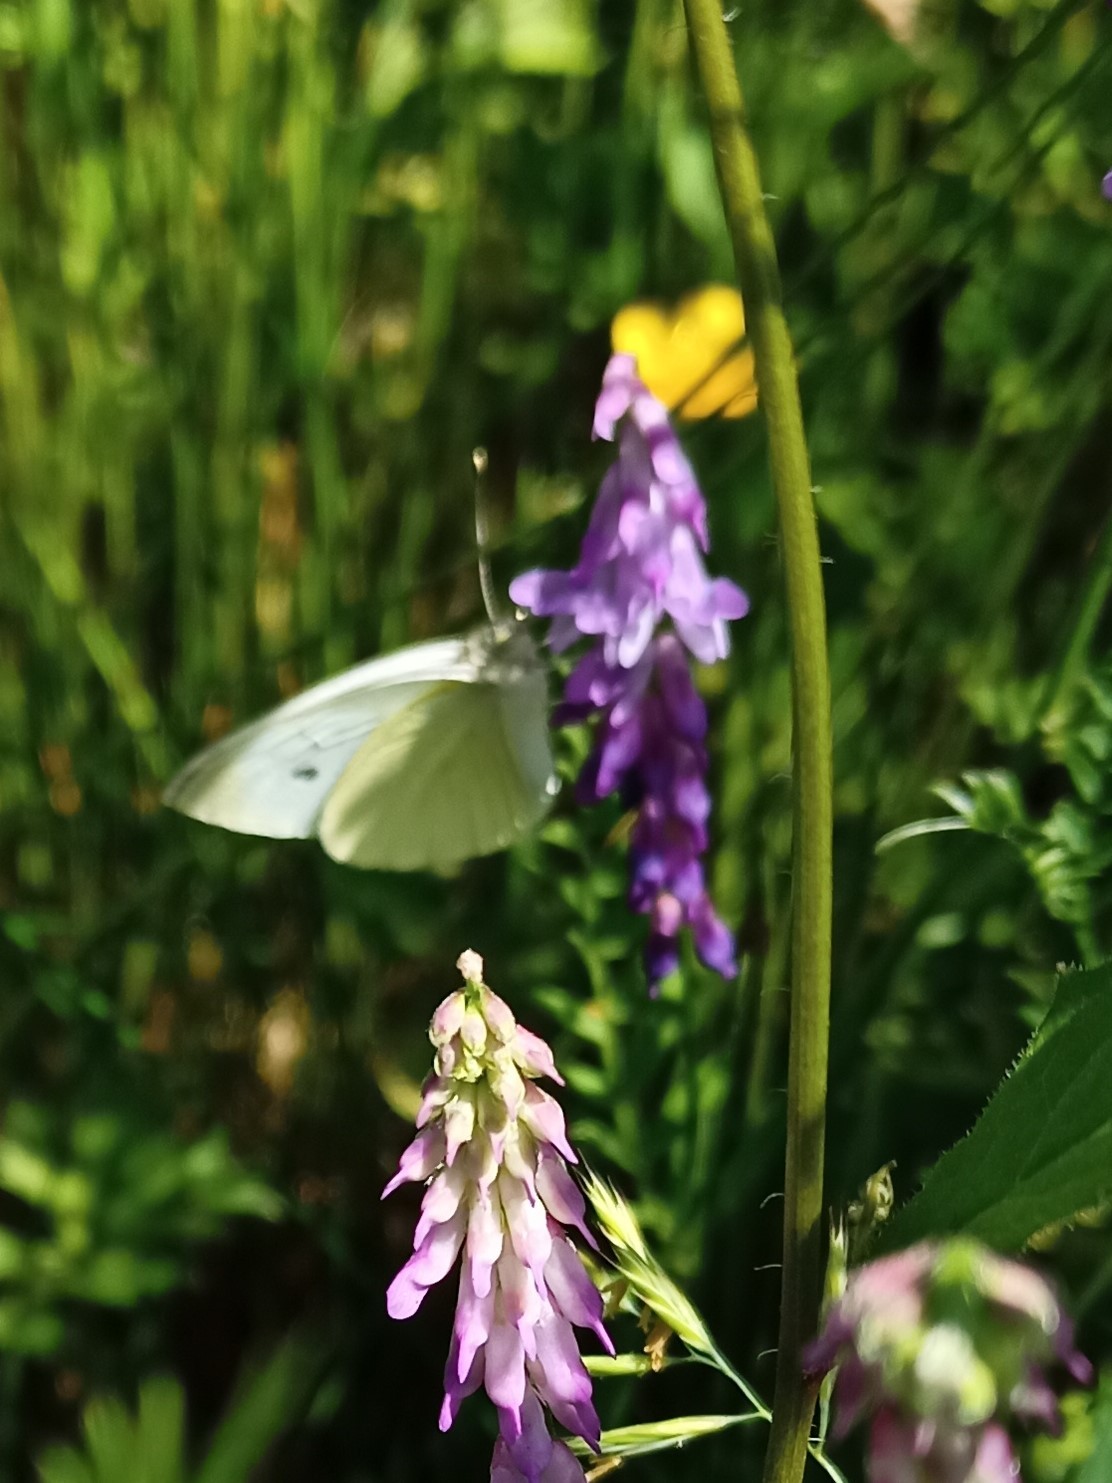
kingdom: Animalia
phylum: Arthropoda
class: Insecta
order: Lepidoptera
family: Pieridae
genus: Pieris
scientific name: Pieris rapae
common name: Small white
